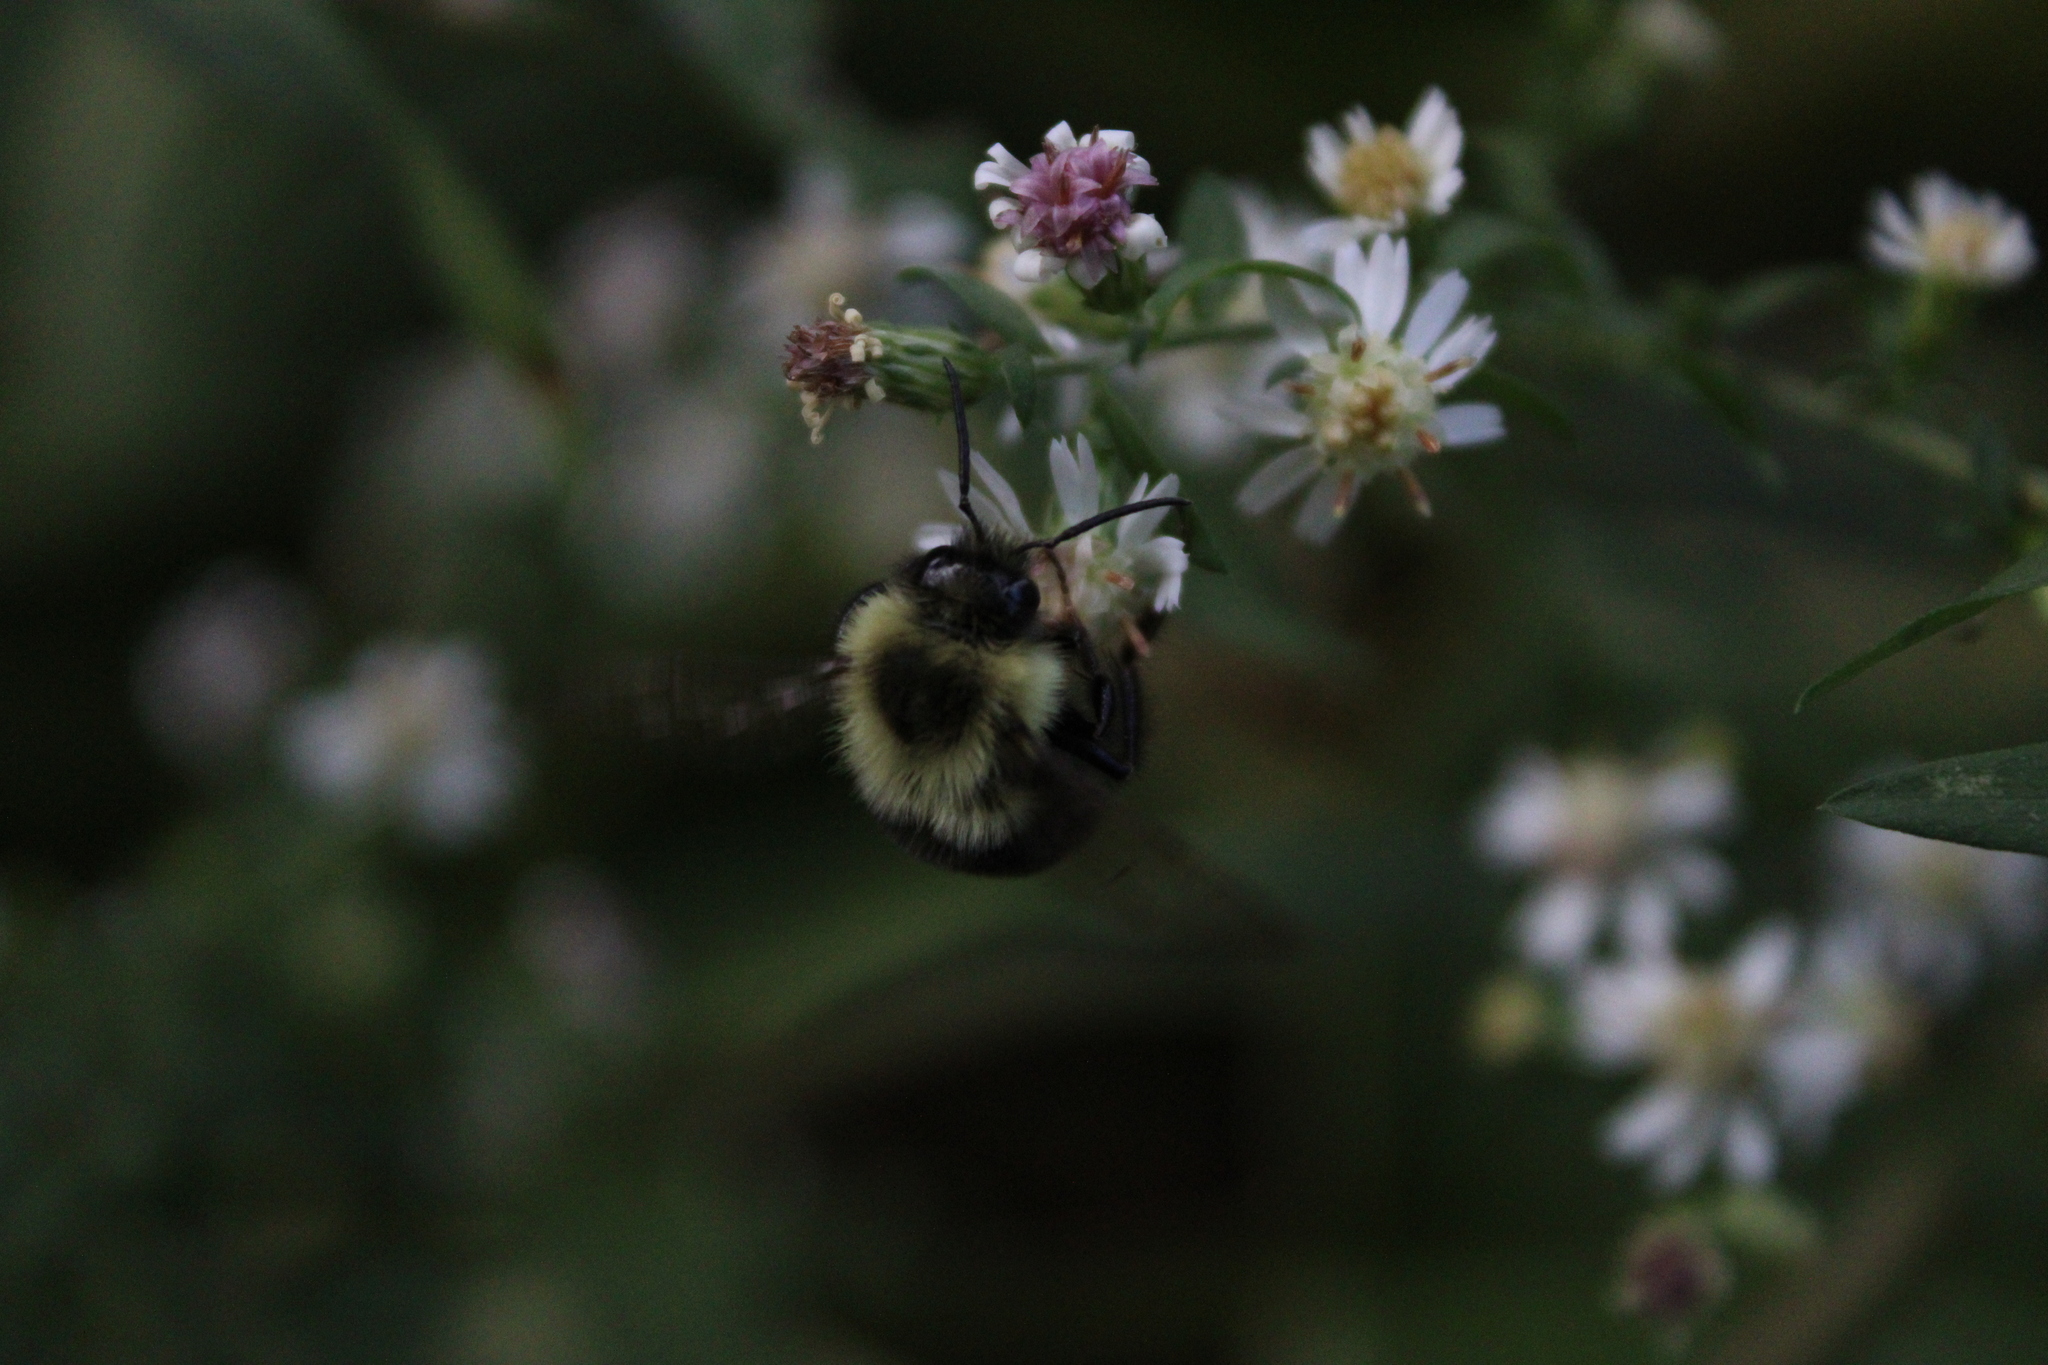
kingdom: Animalia
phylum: Arthropoda
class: Insecta
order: Hymenoptera
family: Apidae
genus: Bombus
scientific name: Bombus impatiens
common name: Common eastern bumble bee
